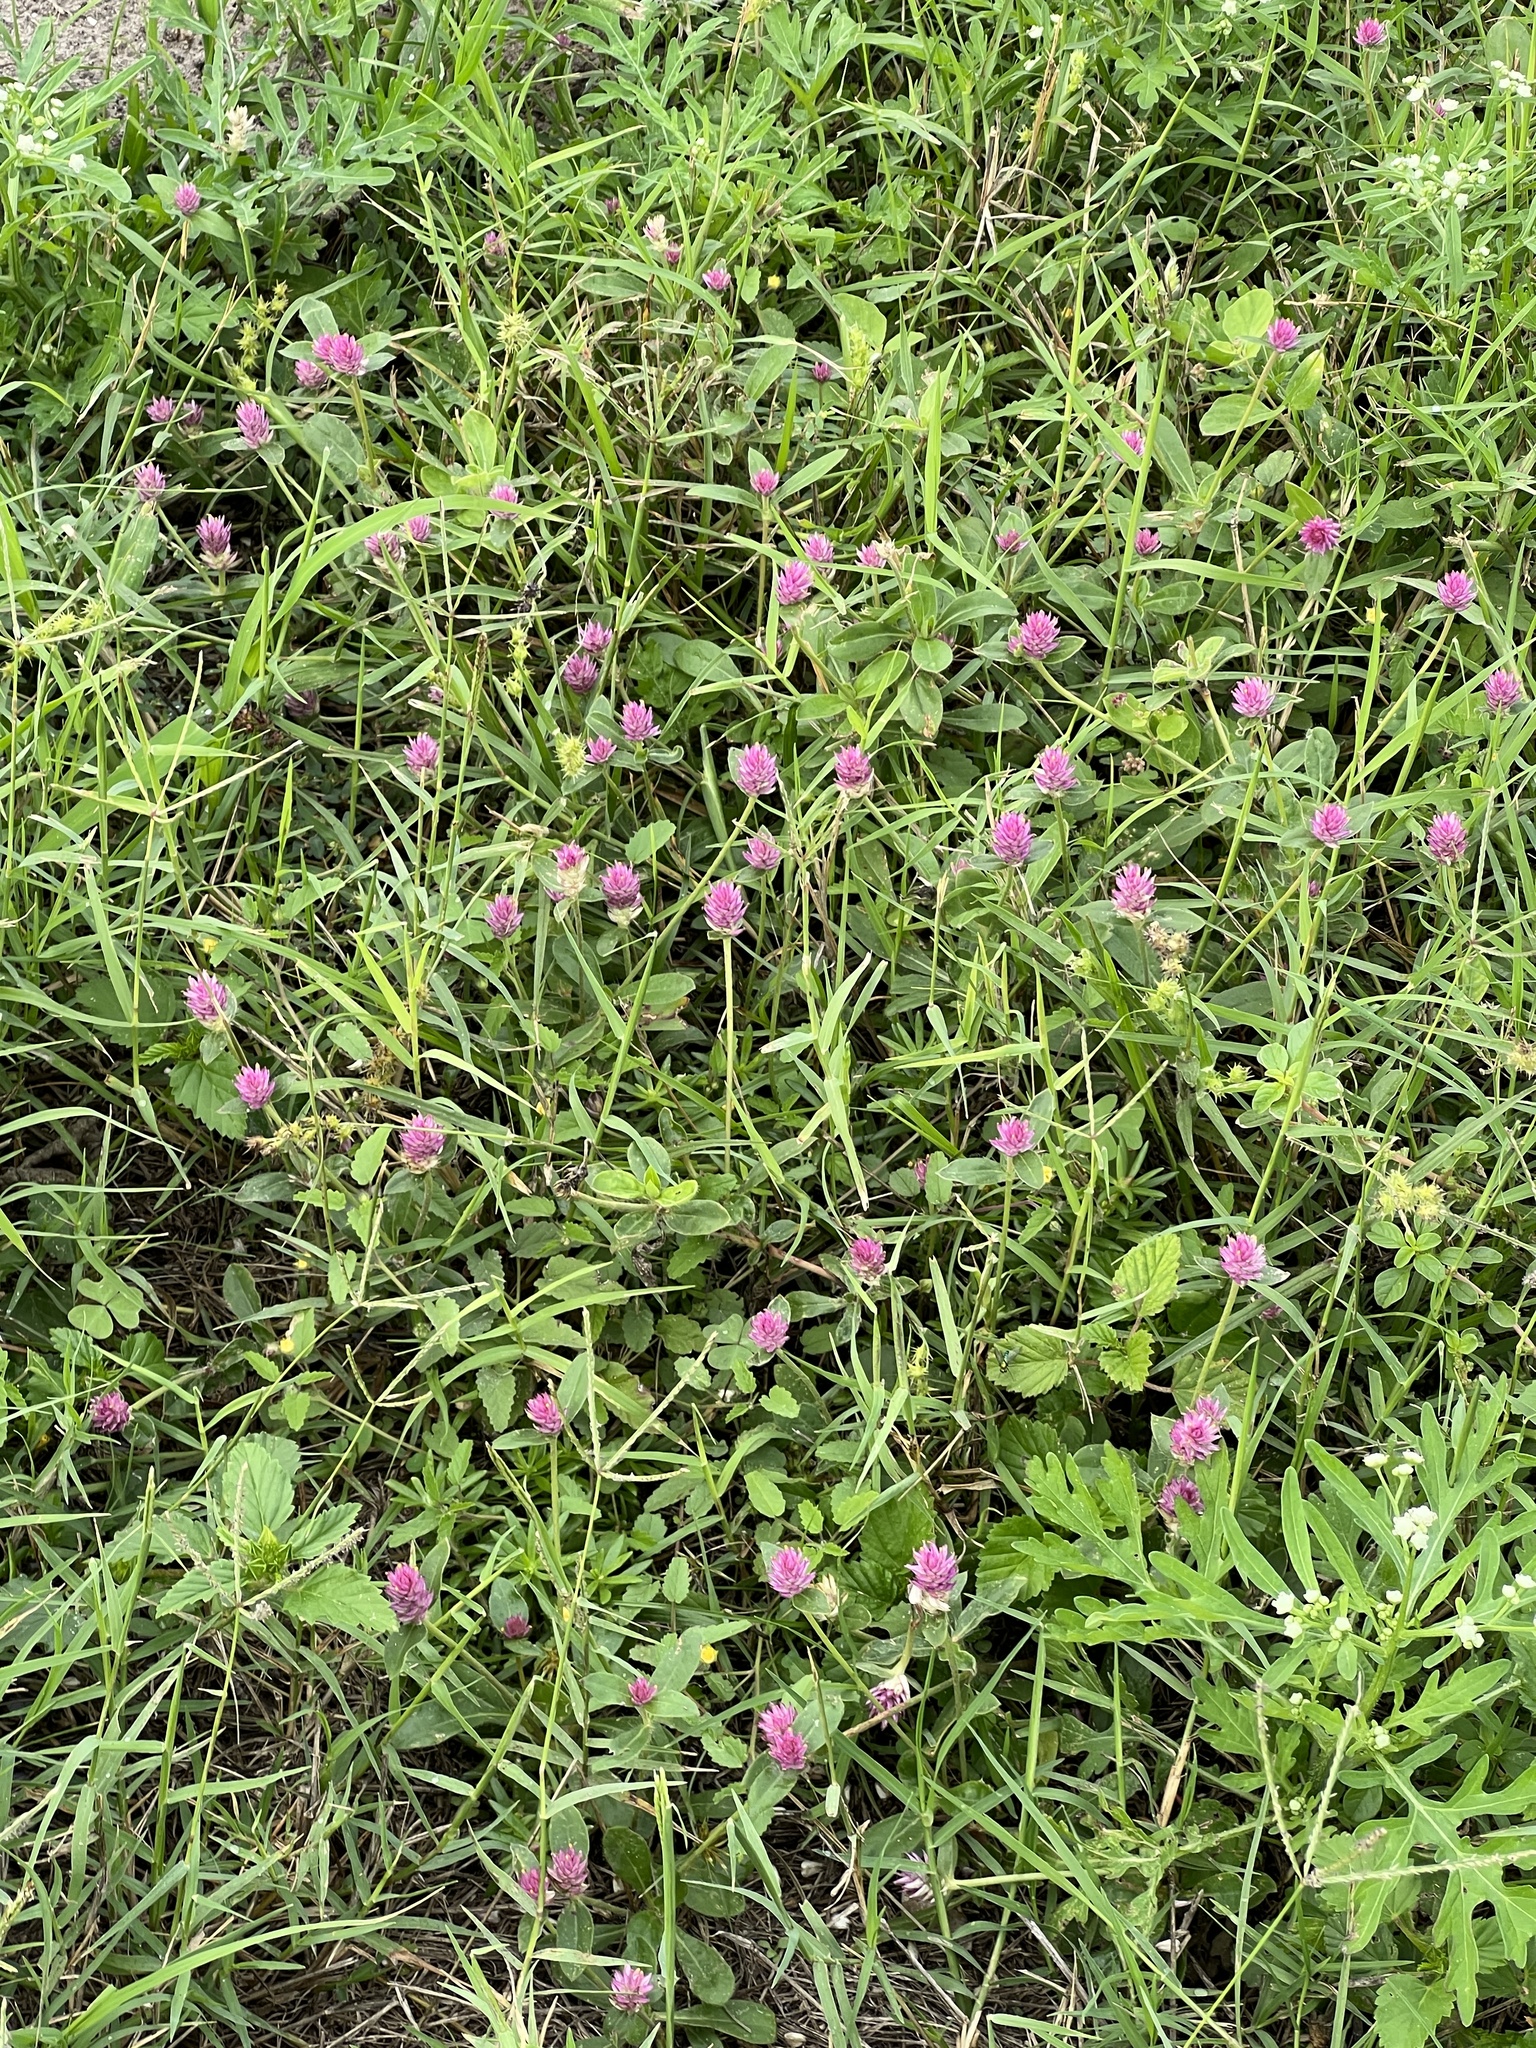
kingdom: Plantae
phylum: Tracheophyta
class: Magnoliopsida
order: Caryophyllales
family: Amaranthaceae
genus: Gomphrena
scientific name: Gomphrena globosa
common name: Common globe amaranth
